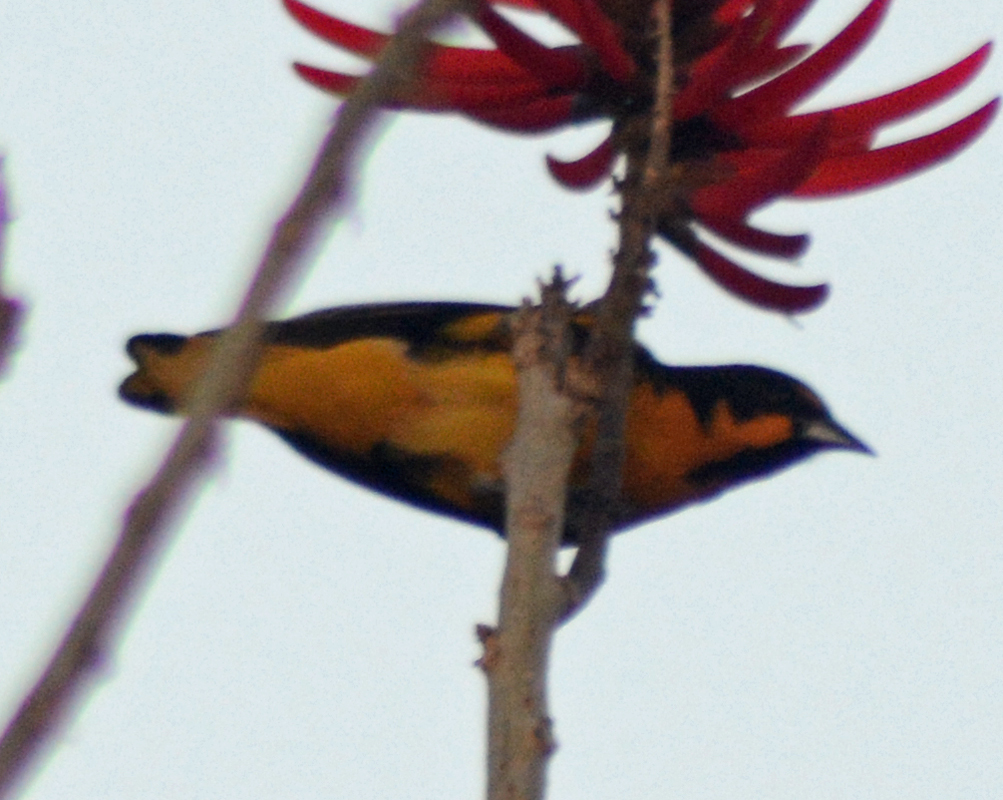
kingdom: Animalia
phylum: Chordata
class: Aves
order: Passeriformes
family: Icteridae
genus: Icterus
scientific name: Icterus abeillei
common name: Black-backed oriole
